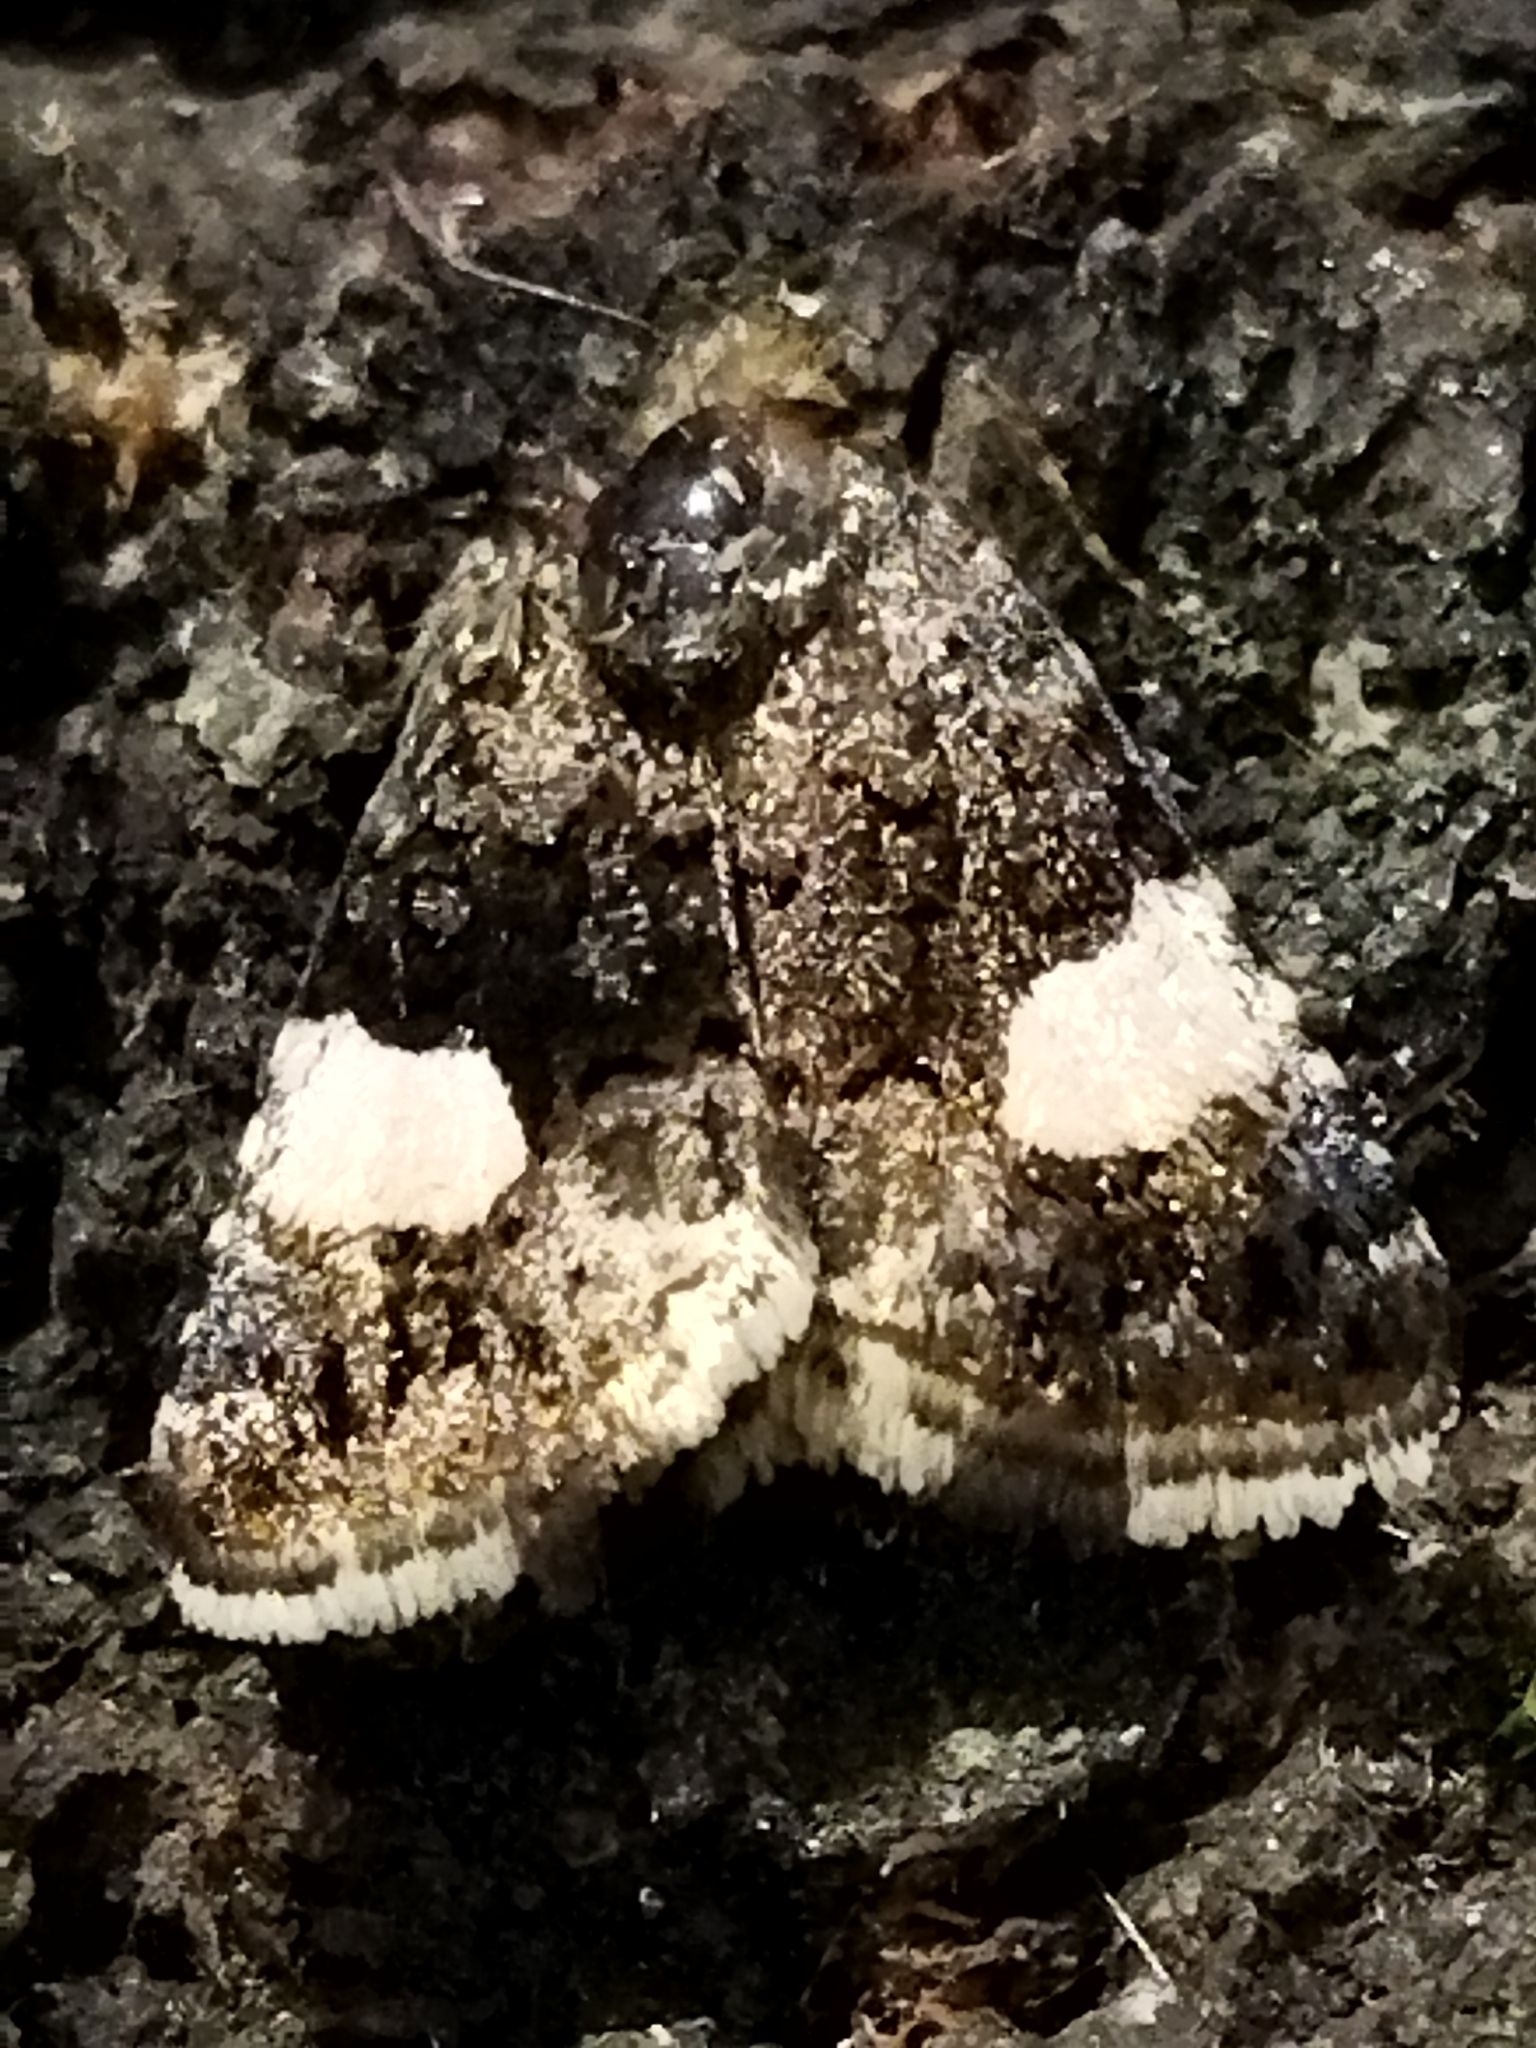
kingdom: Animalia
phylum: Arthropoda
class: Insecta
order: Lepidoptera
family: Erebidae
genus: Tyta
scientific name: Tyta luctuosa
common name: Four-spotted
